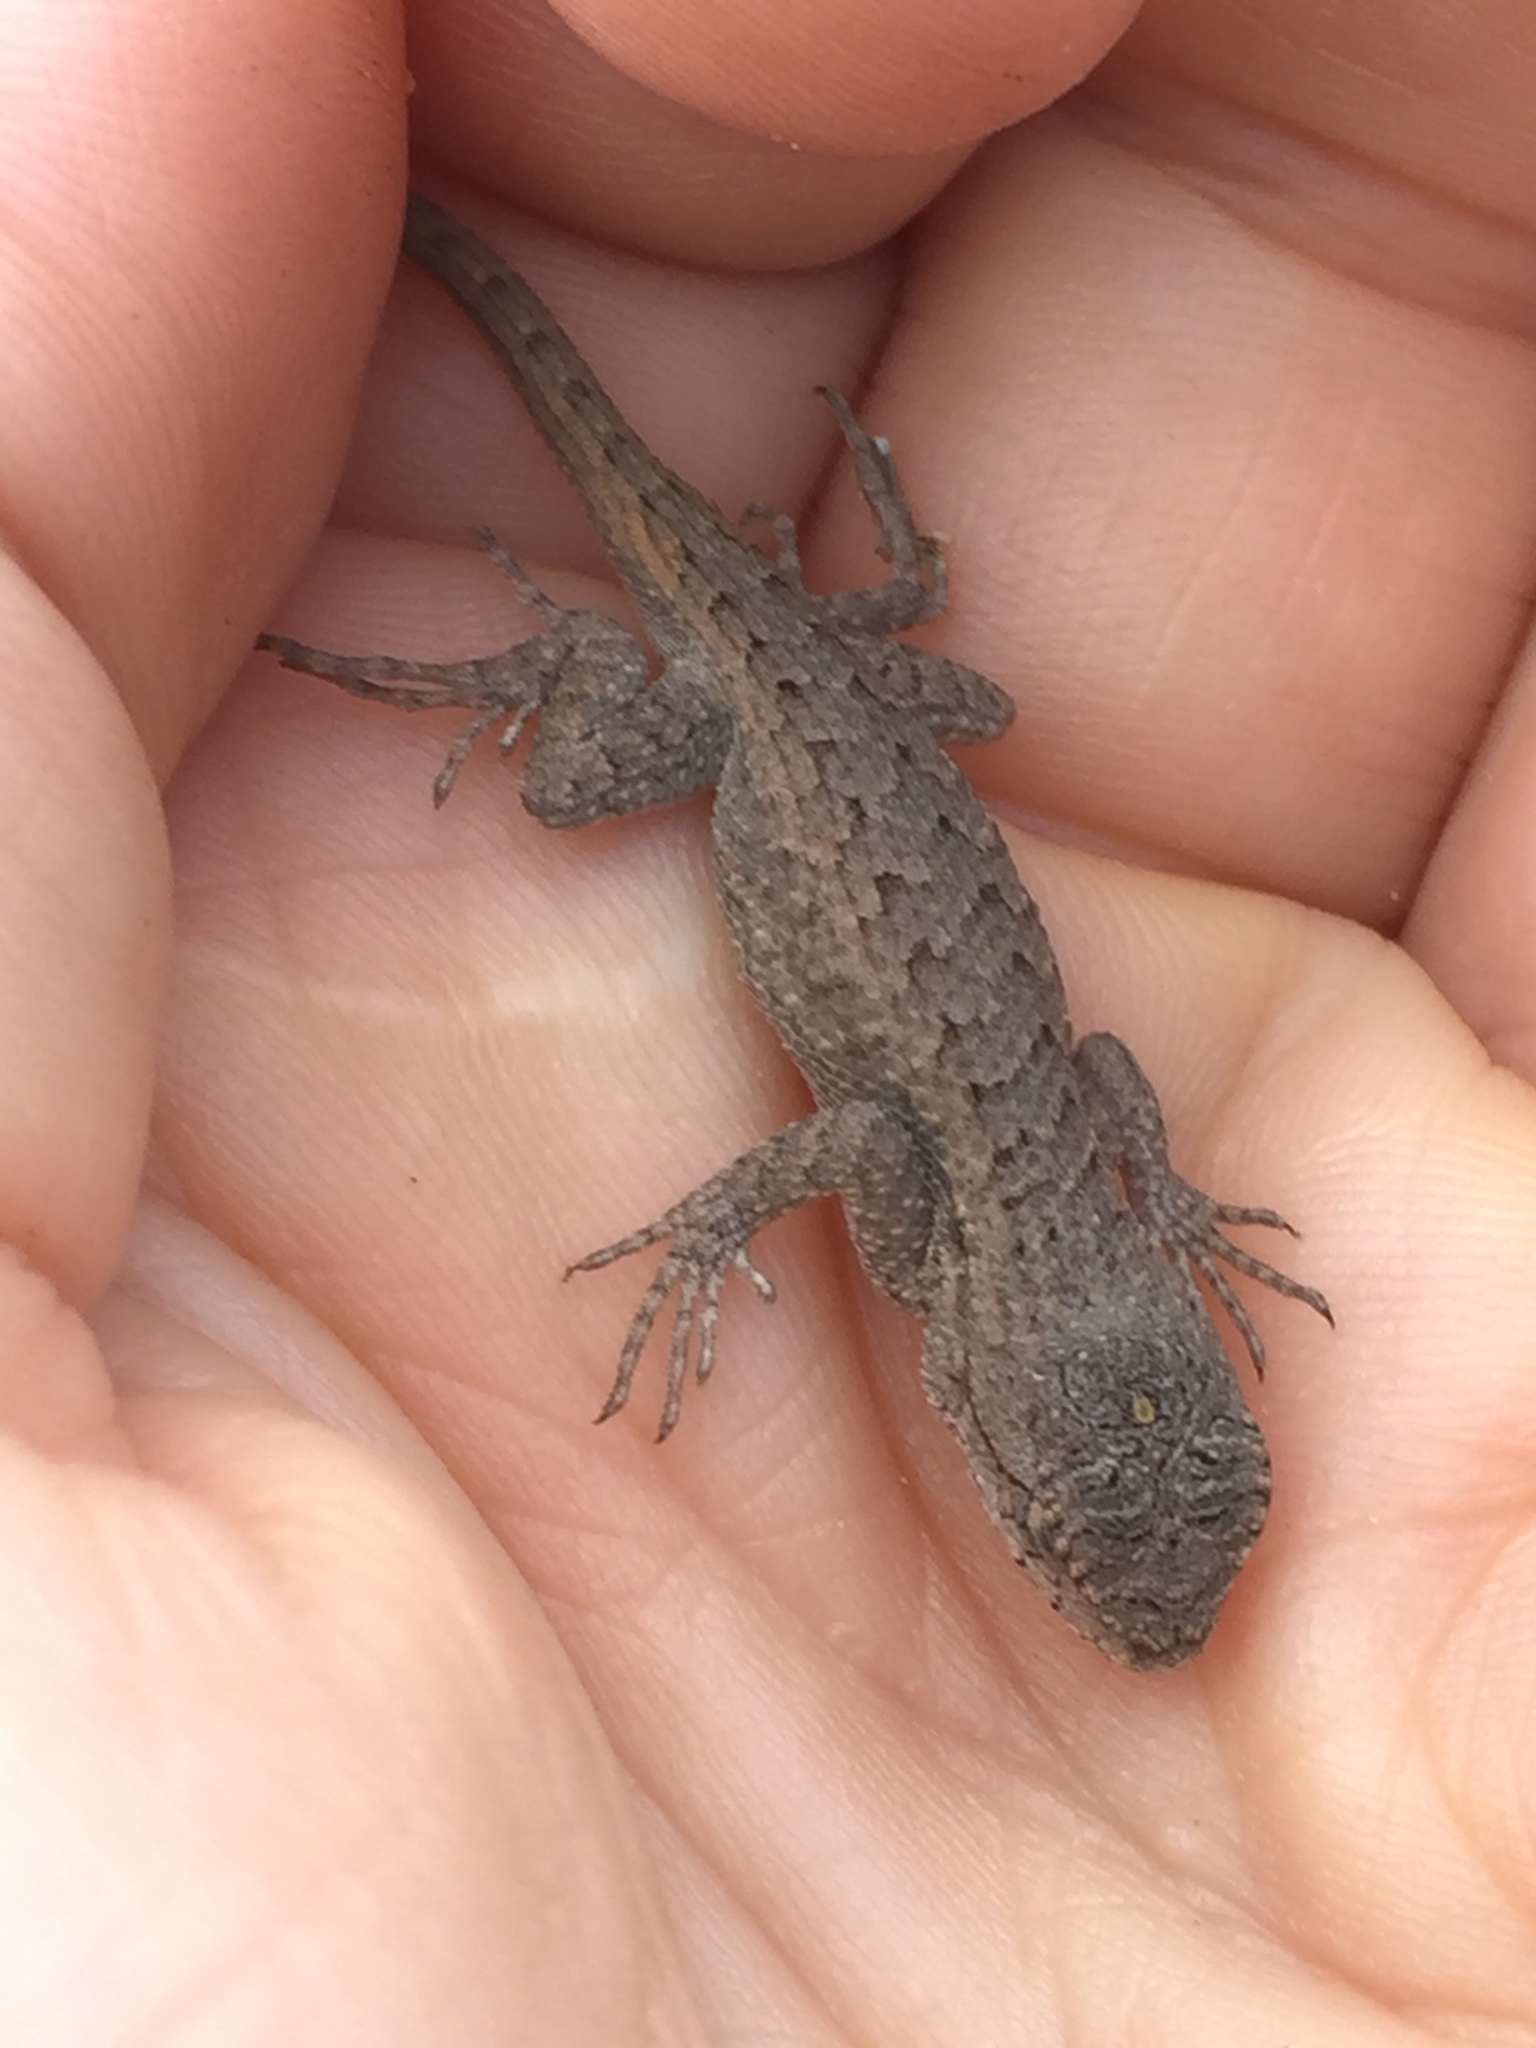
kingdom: Animalia
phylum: Chordata
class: Squamata
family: Phrynosomatidae
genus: Sceloporus
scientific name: Sceloporus occidentalis
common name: Western fence lizard
